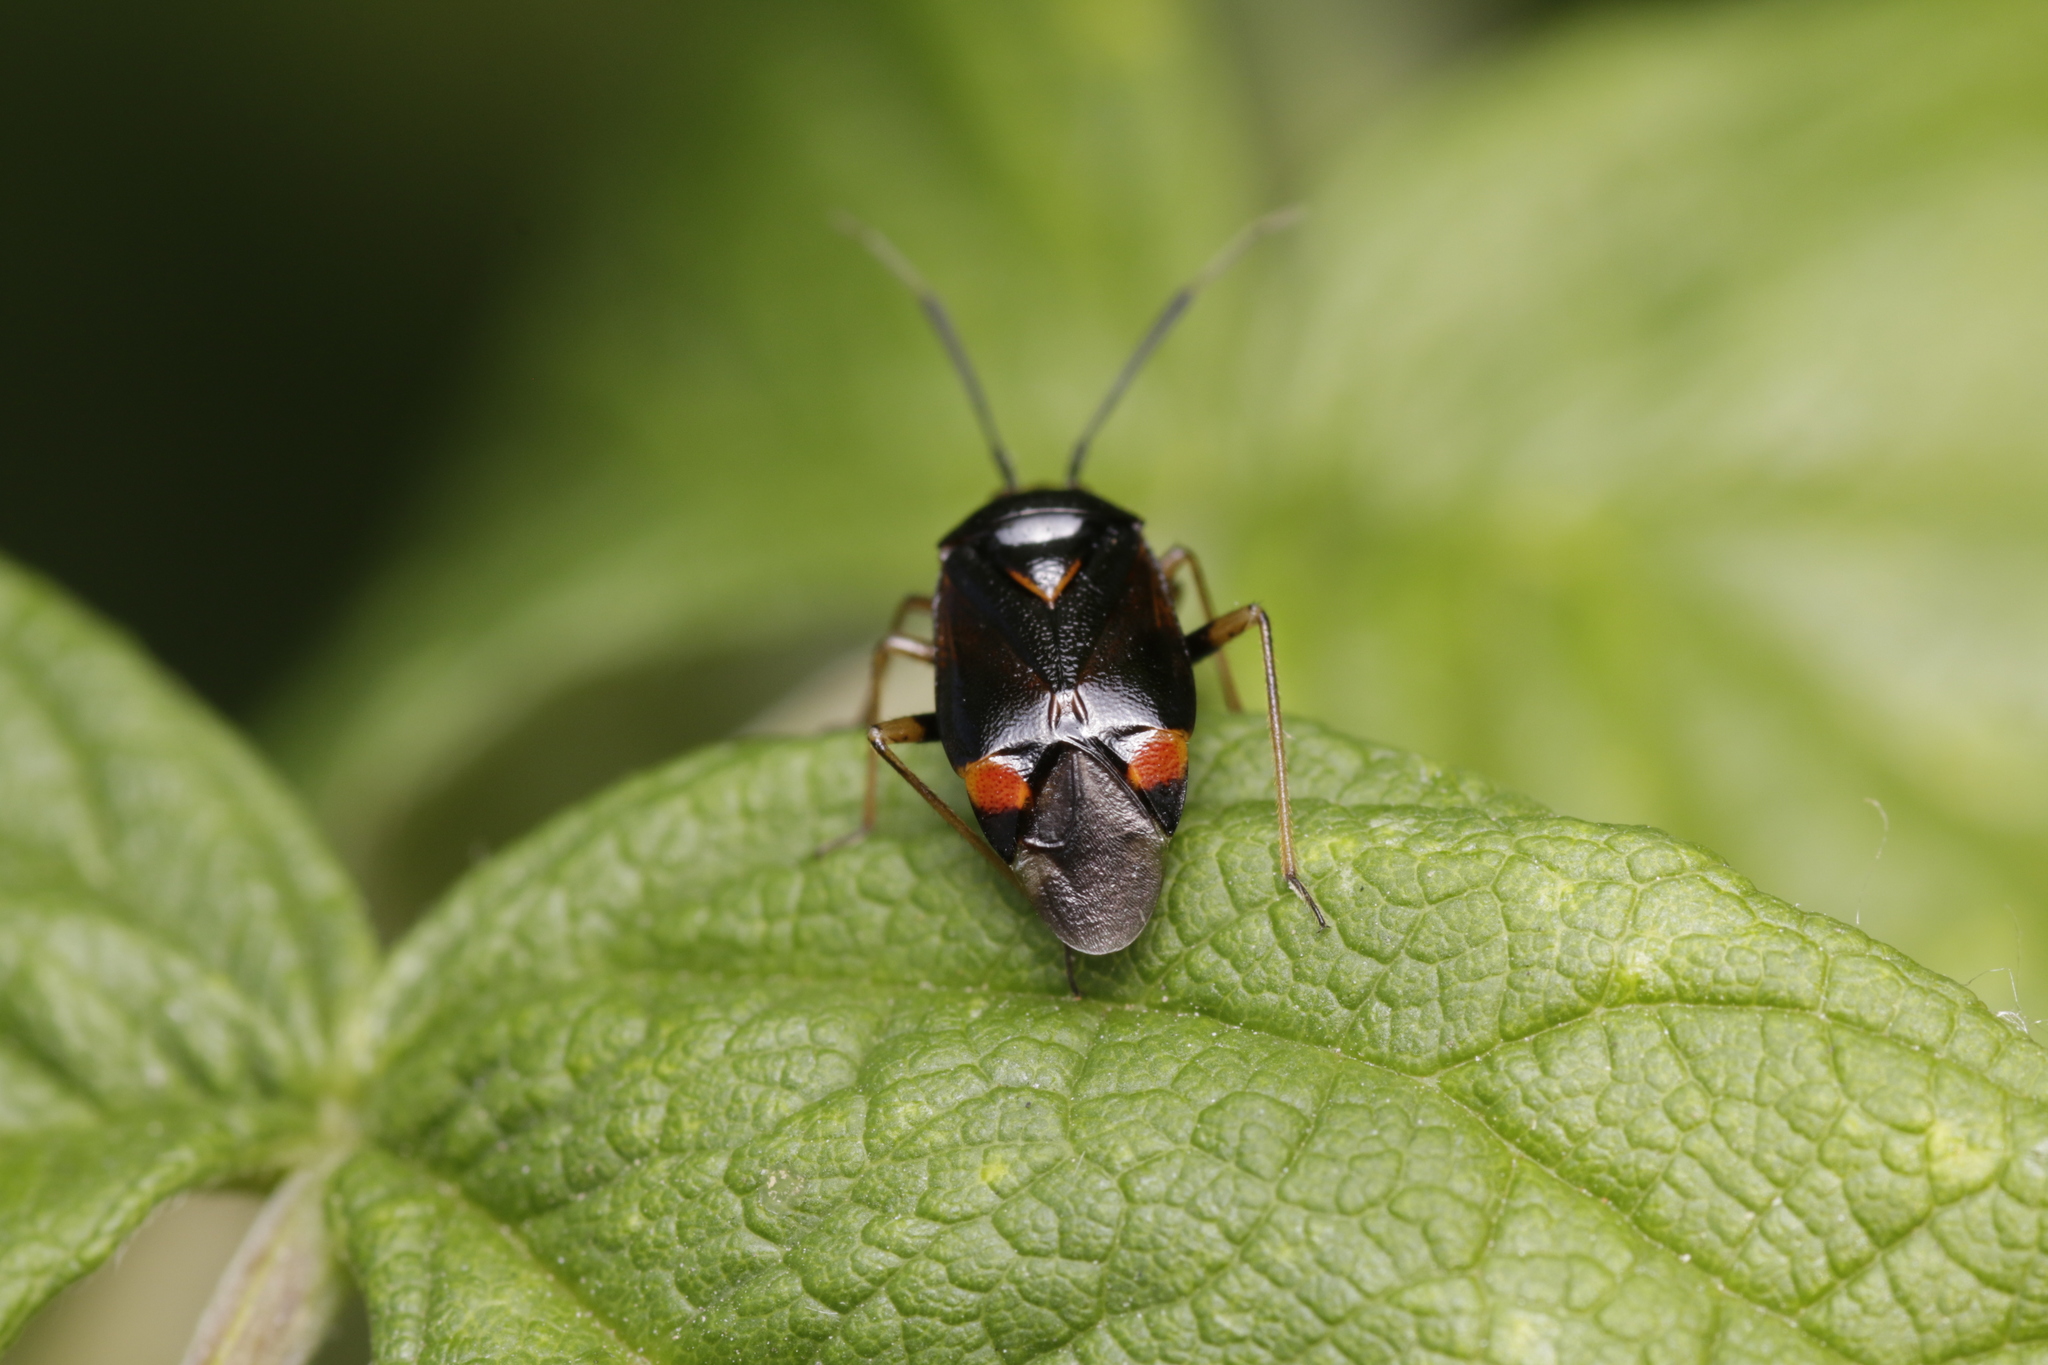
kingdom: Animalia
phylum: Arthropoda
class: Insecta
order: Hemiptera
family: Miridae
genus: Deraeocoris
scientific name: Deraeocoris ruber
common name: Plant bug
